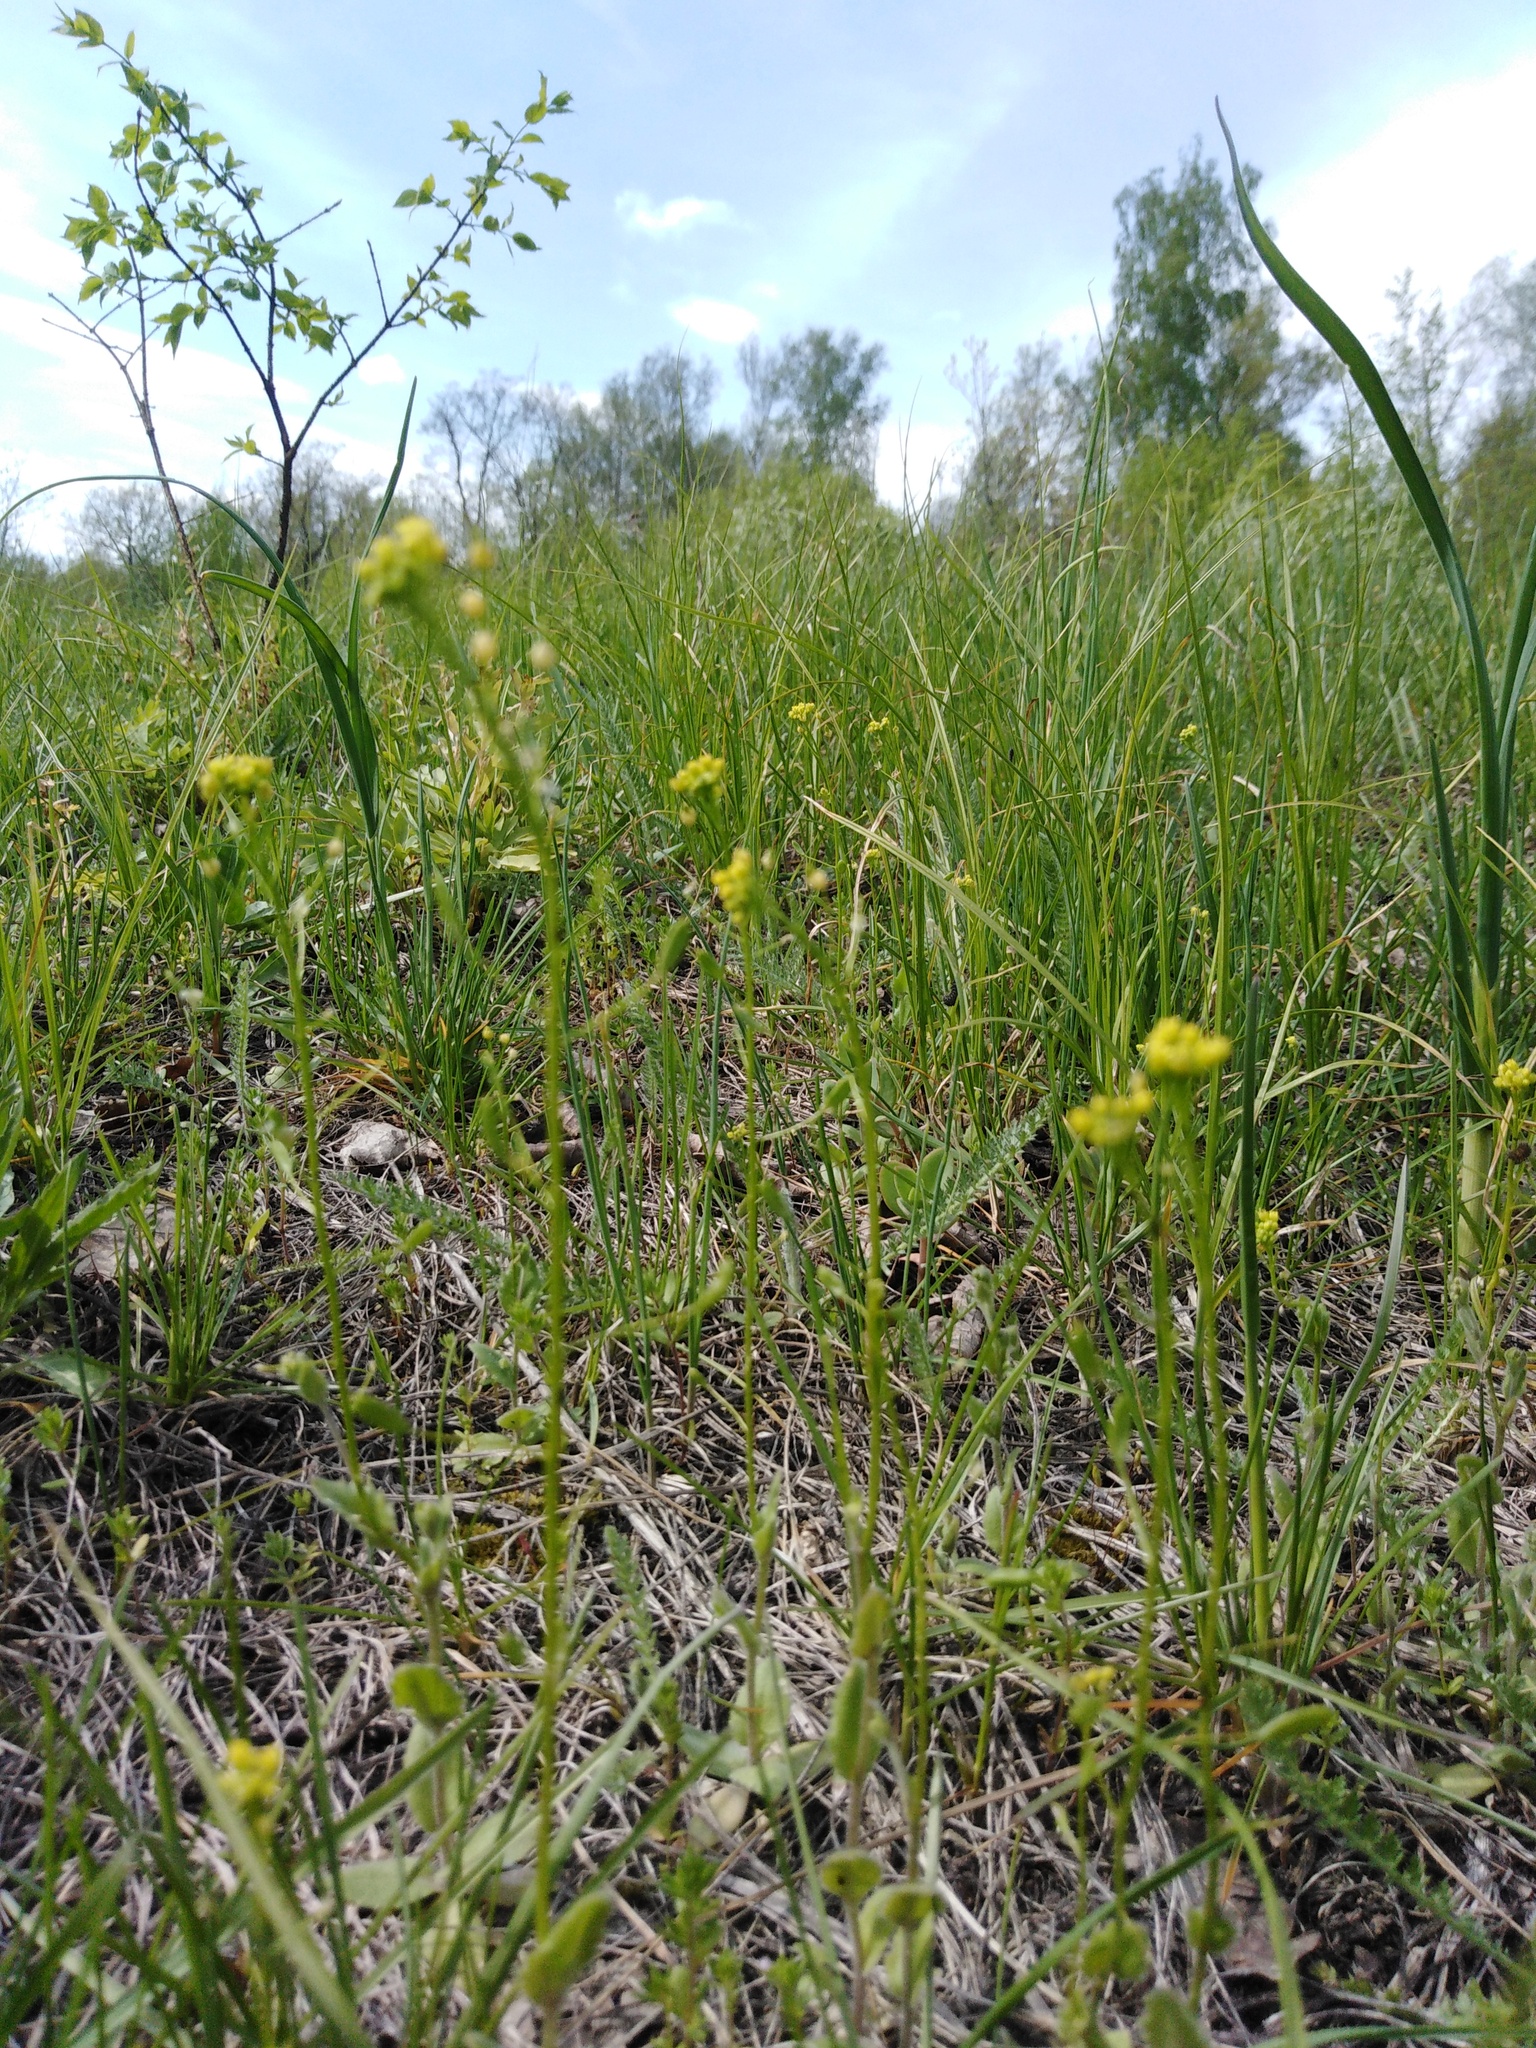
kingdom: Plantae
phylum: Tracheophyta
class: Magnoliopsida
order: Brassicales
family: Brassicaceae
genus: Draba
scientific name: Draba nemorosa
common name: Wood whitlow-grass
